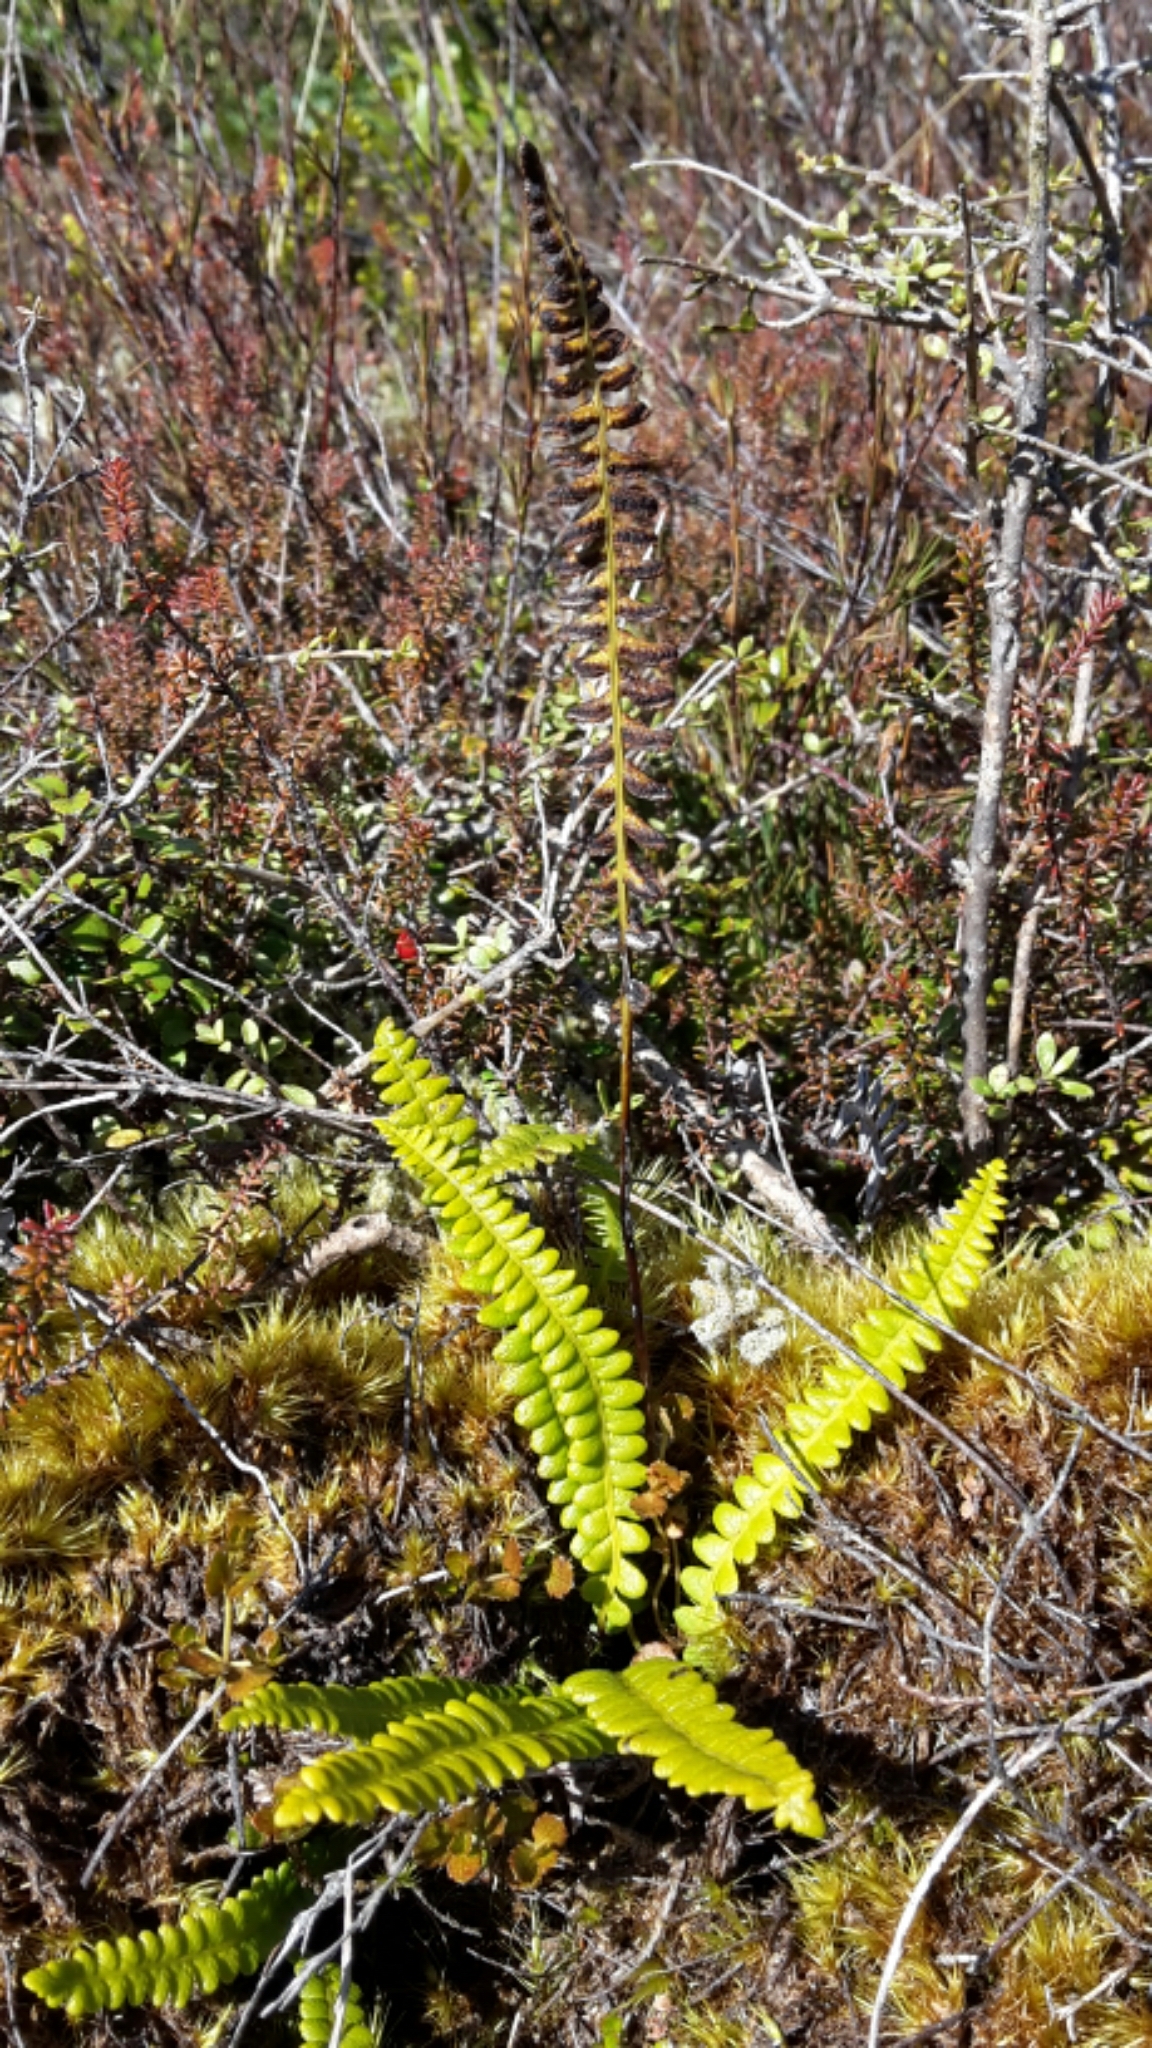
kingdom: Plantae
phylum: Tracheophyta
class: Polypodiopsida
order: Polypodiales
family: Blechnaceae
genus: Austroblechnum
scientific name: Austroblechnum penna-marina
